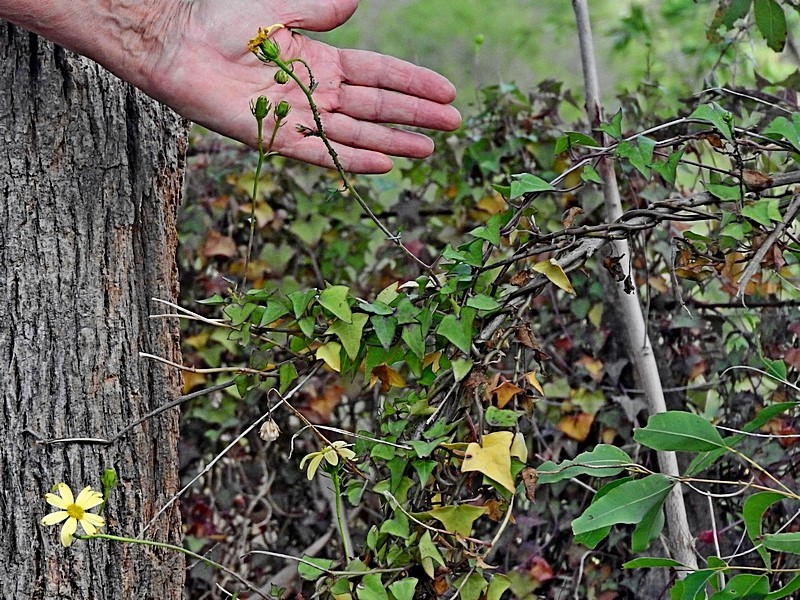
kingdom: Plantae
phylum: Tracheophyta
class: Magnoliopsida
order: Asterales
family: Asteraceae
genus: Senecio
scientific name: Senecio macroglossus
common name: Natal-ivy
